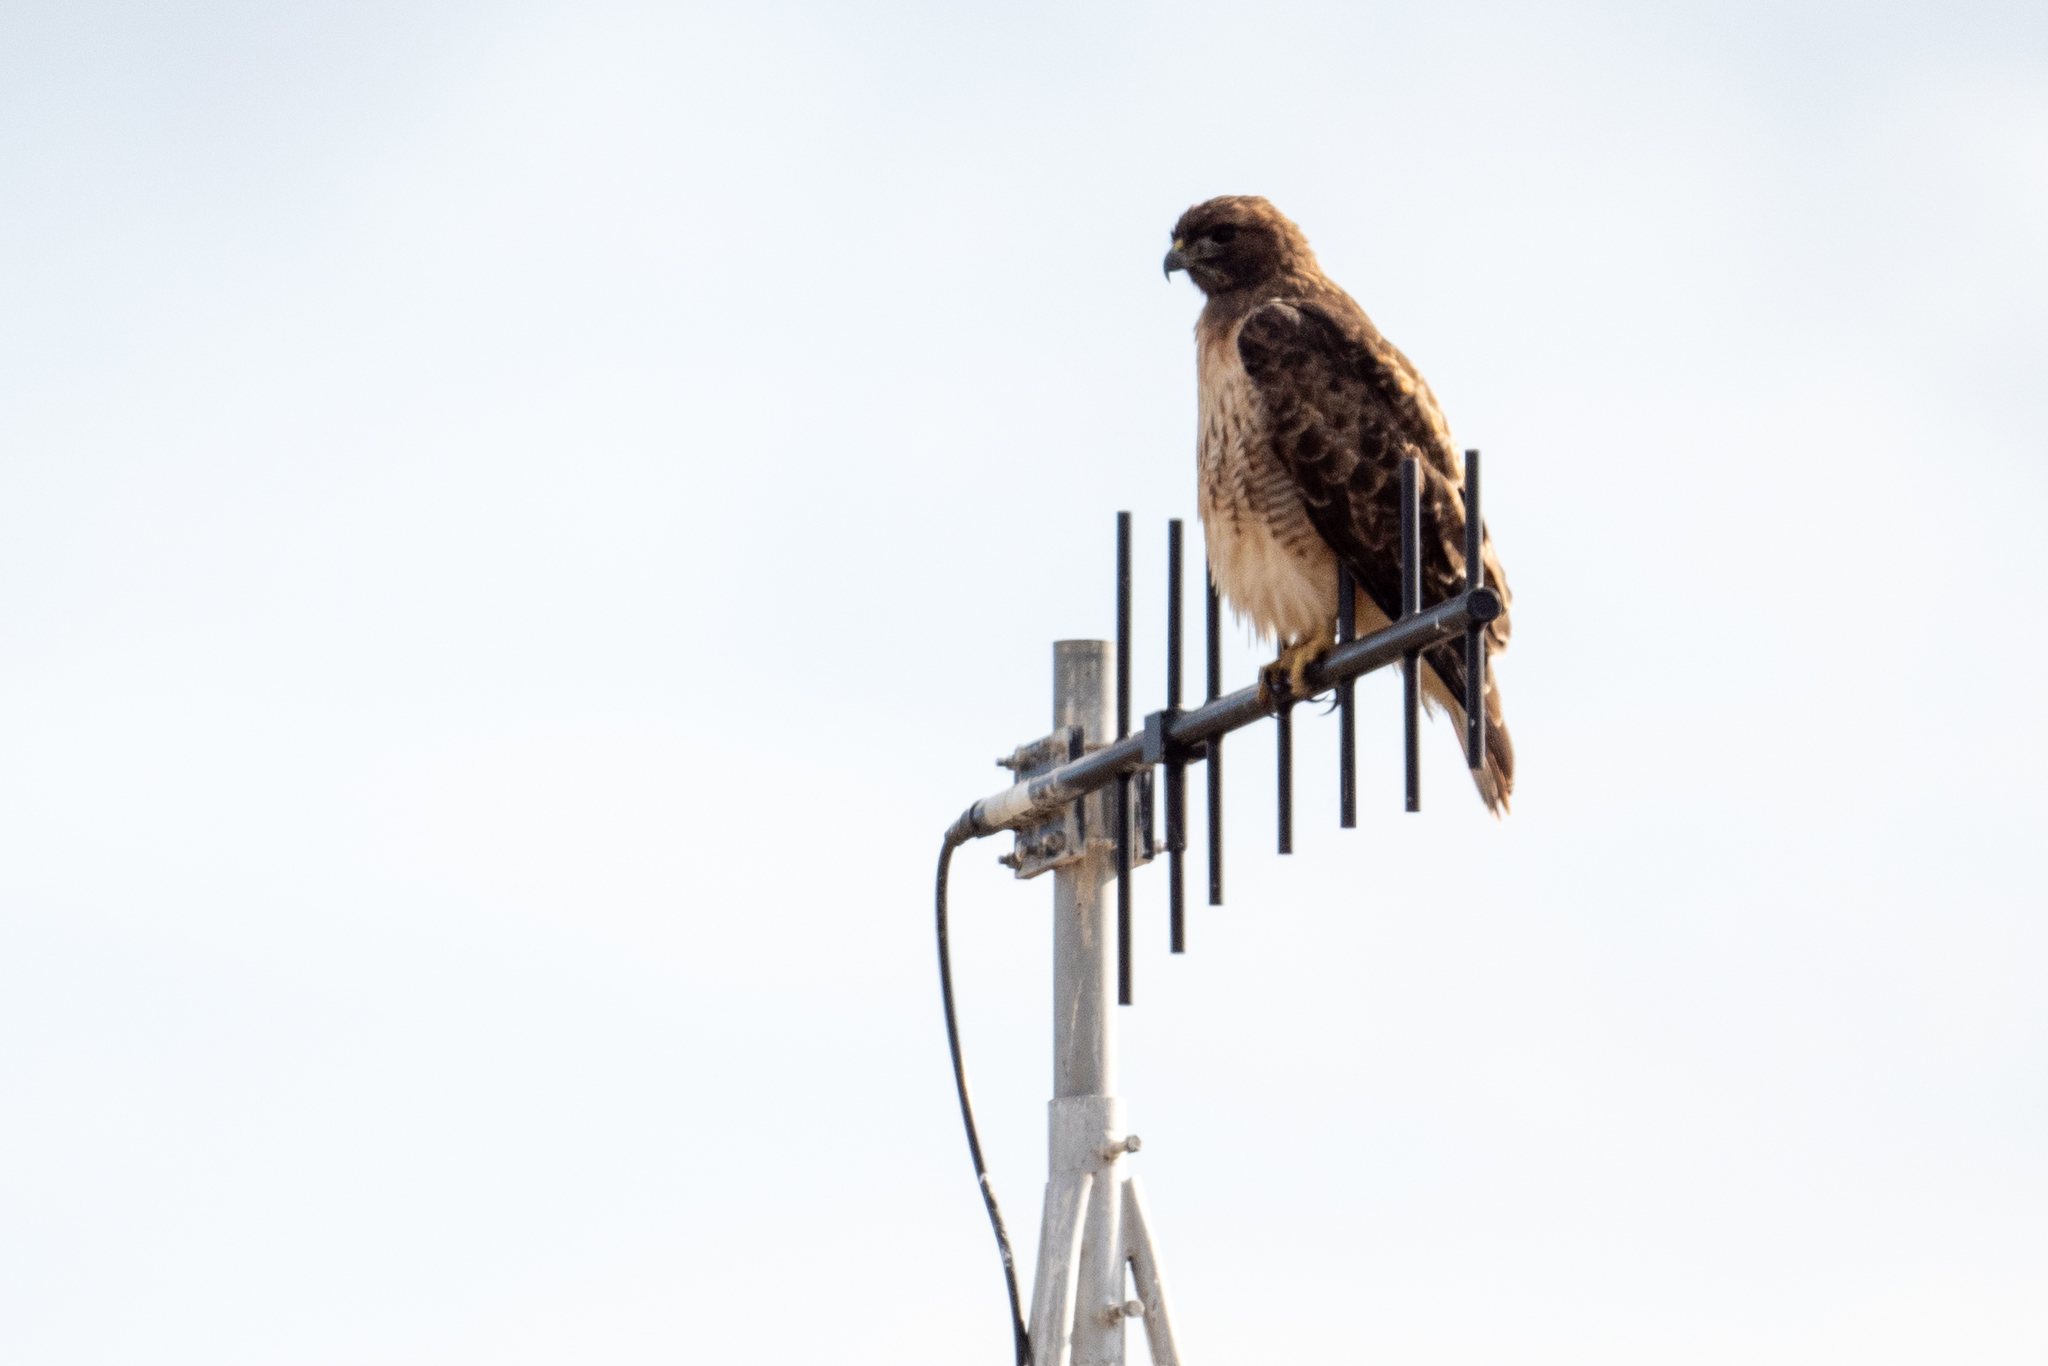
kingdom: Animalia
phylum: Chordata
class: Aves
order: Accipitriformes
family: Accipitridae
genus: Buteo
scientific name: Buteo jamaicensis
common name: Red-tailed hawk
